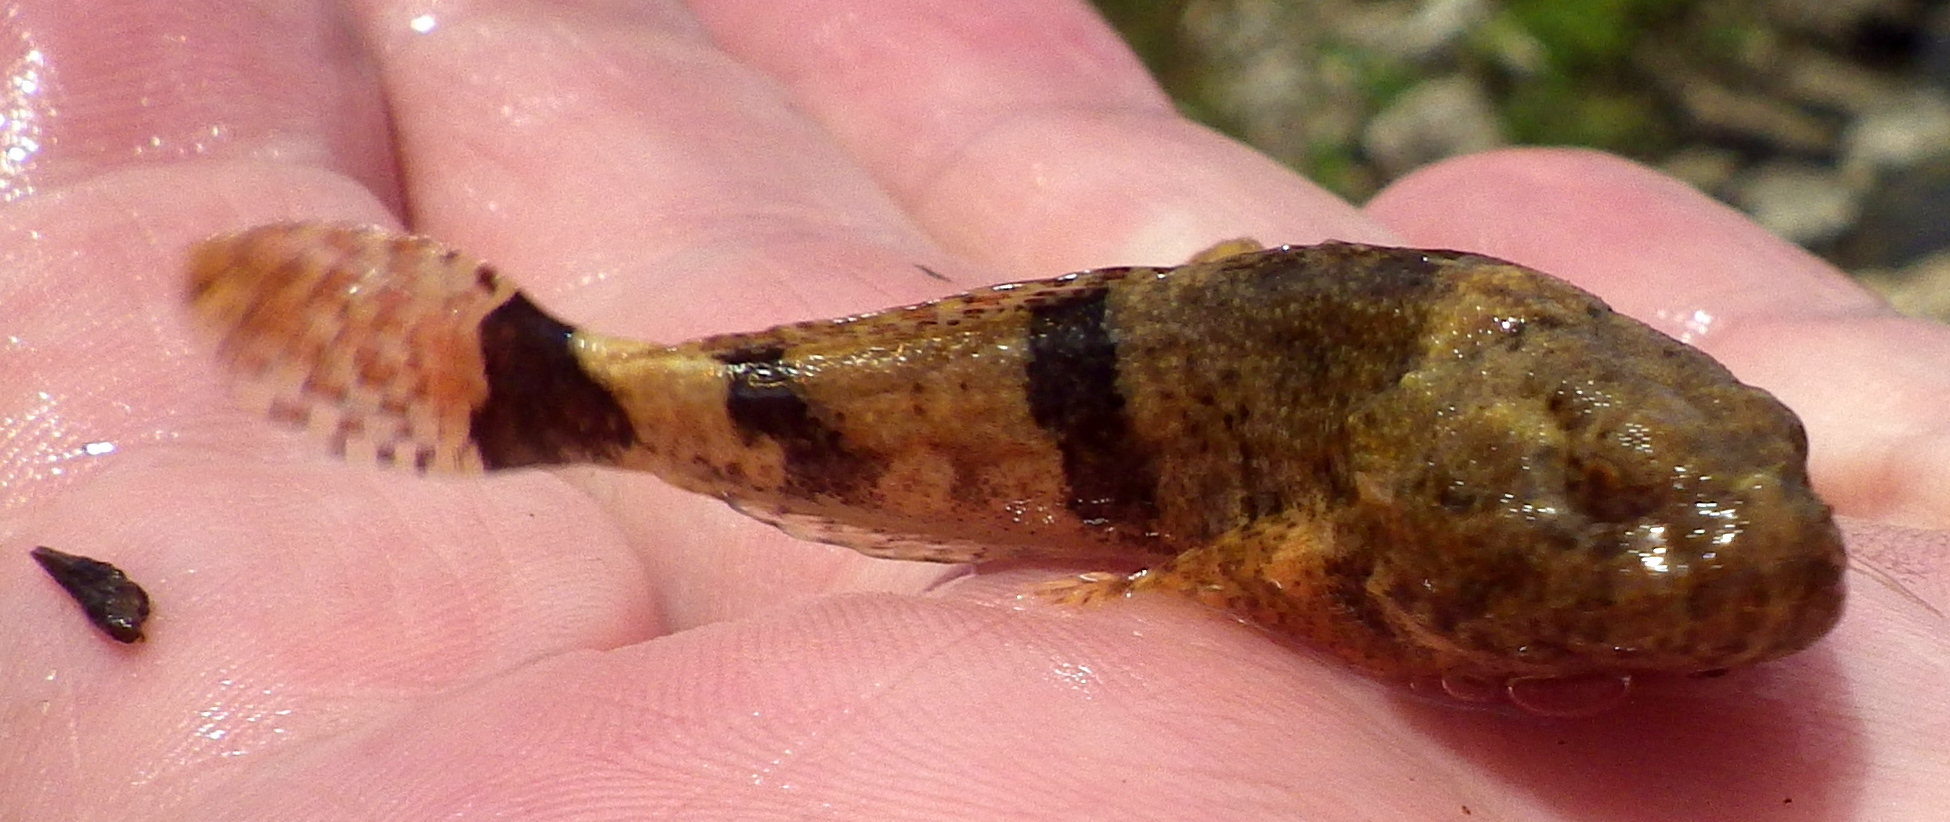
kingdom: Animalia
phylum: Chordata
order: Scorpaeniformes
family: Cottidae
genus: Cottus
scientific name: Cottus carolinae
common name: Banded sculpin
